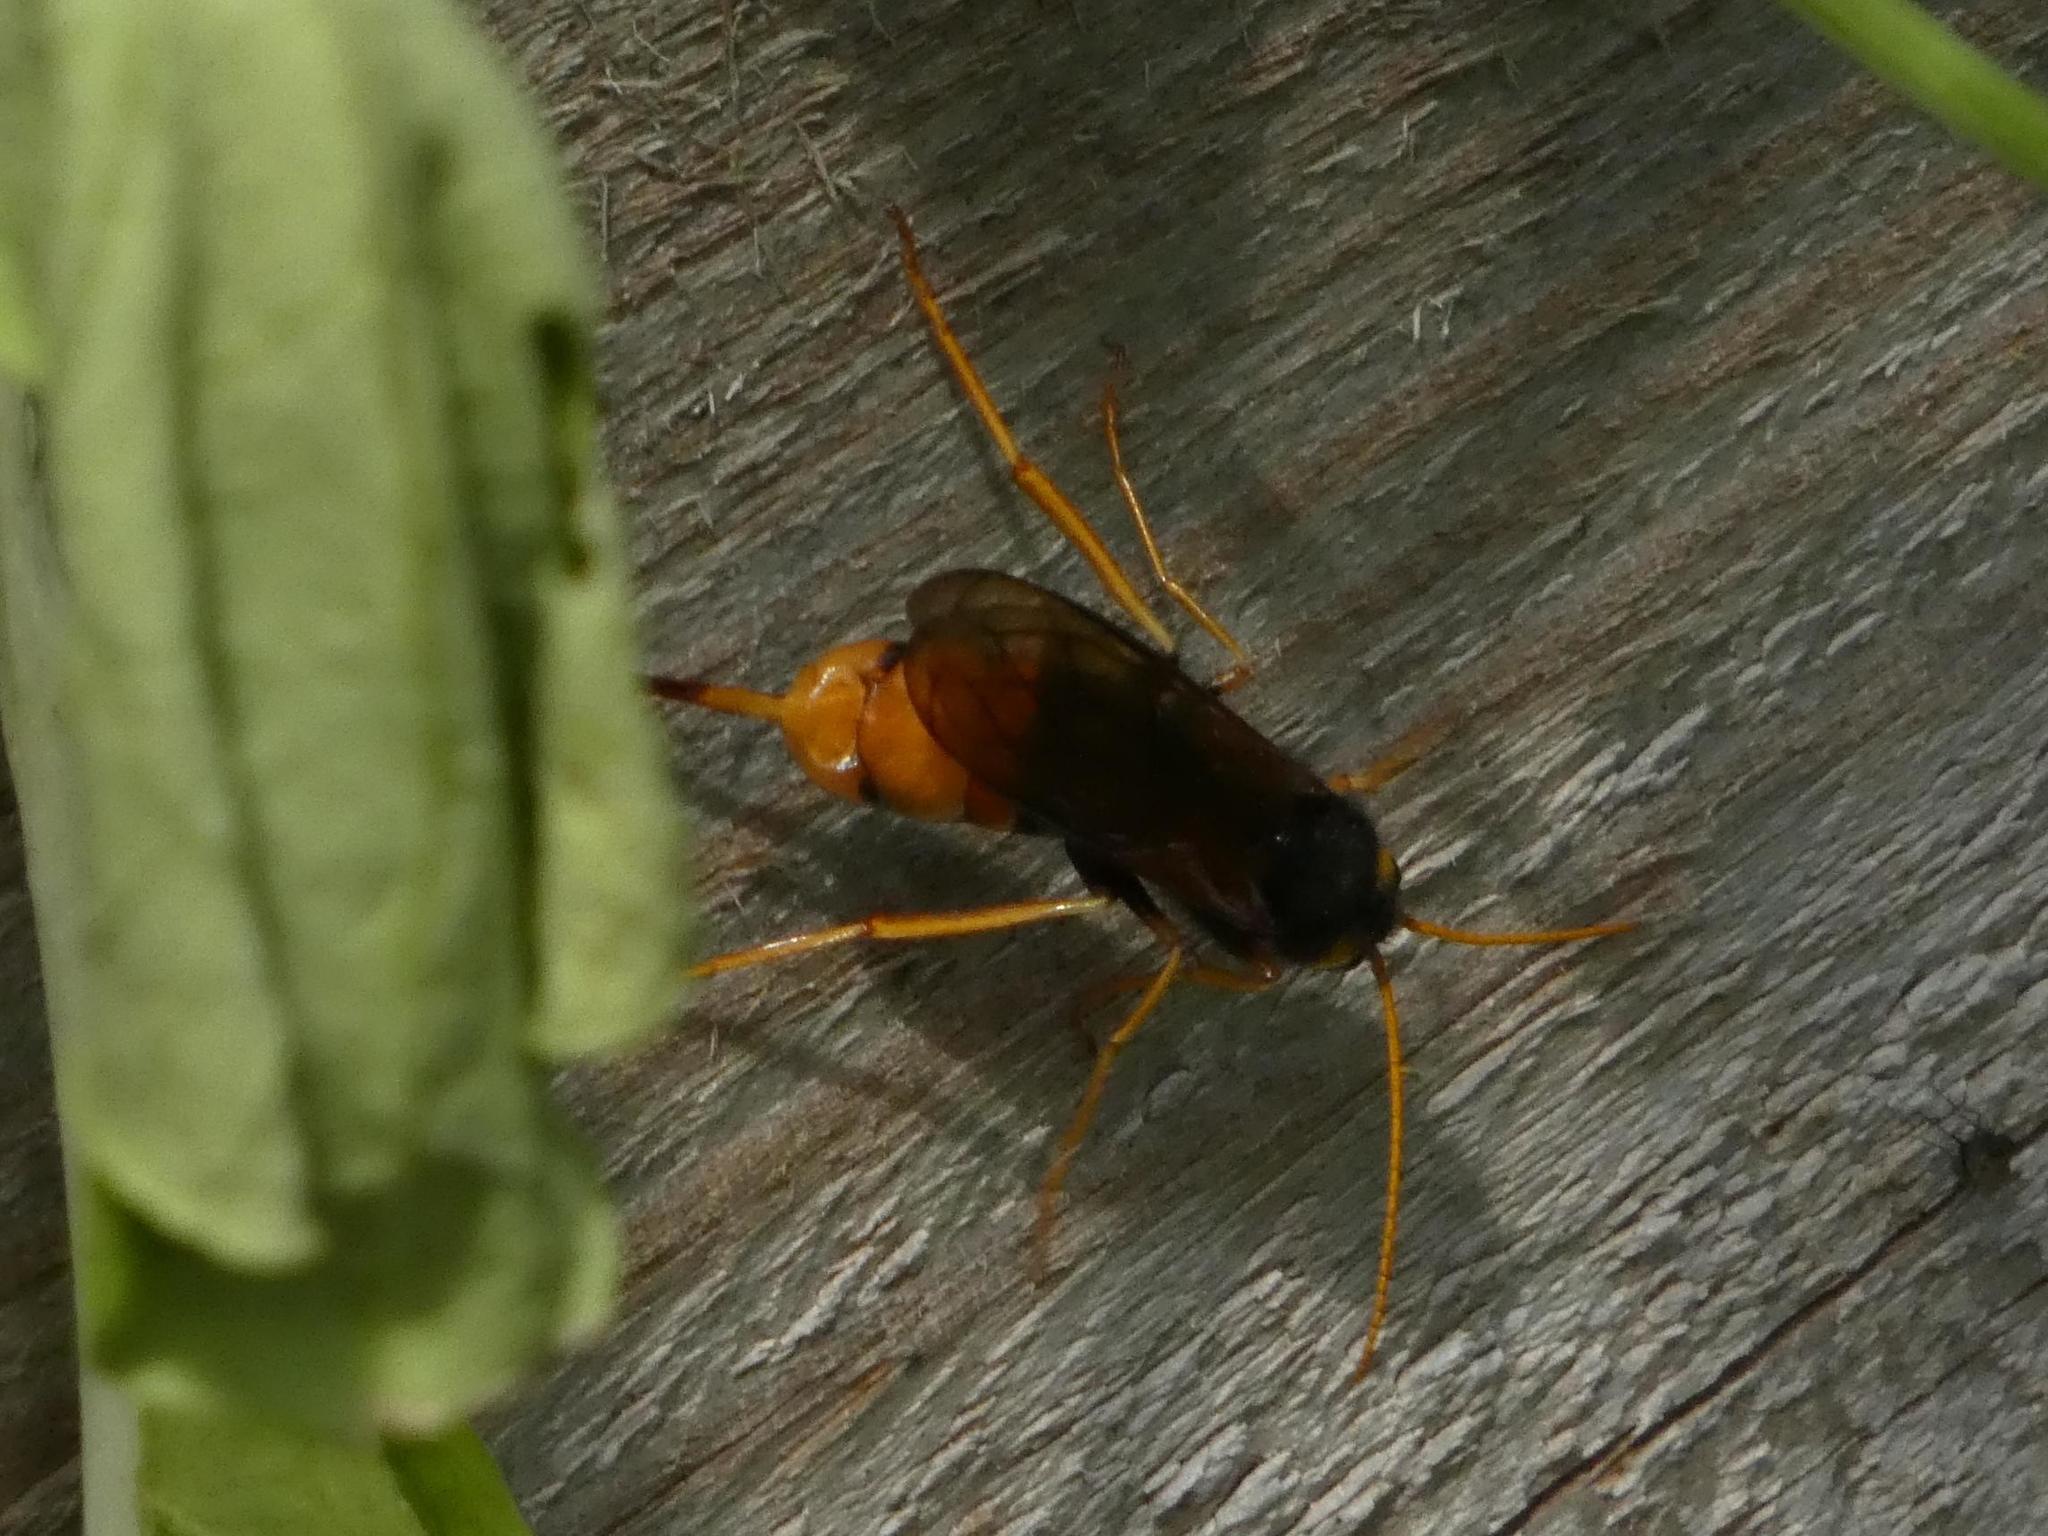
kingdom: Animalia
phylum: Arthropoda
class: Insecta
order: Hymenoptera
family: Siricidae
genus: Urocerus
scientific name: Urocerus gigas
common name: Giant woodwasp
